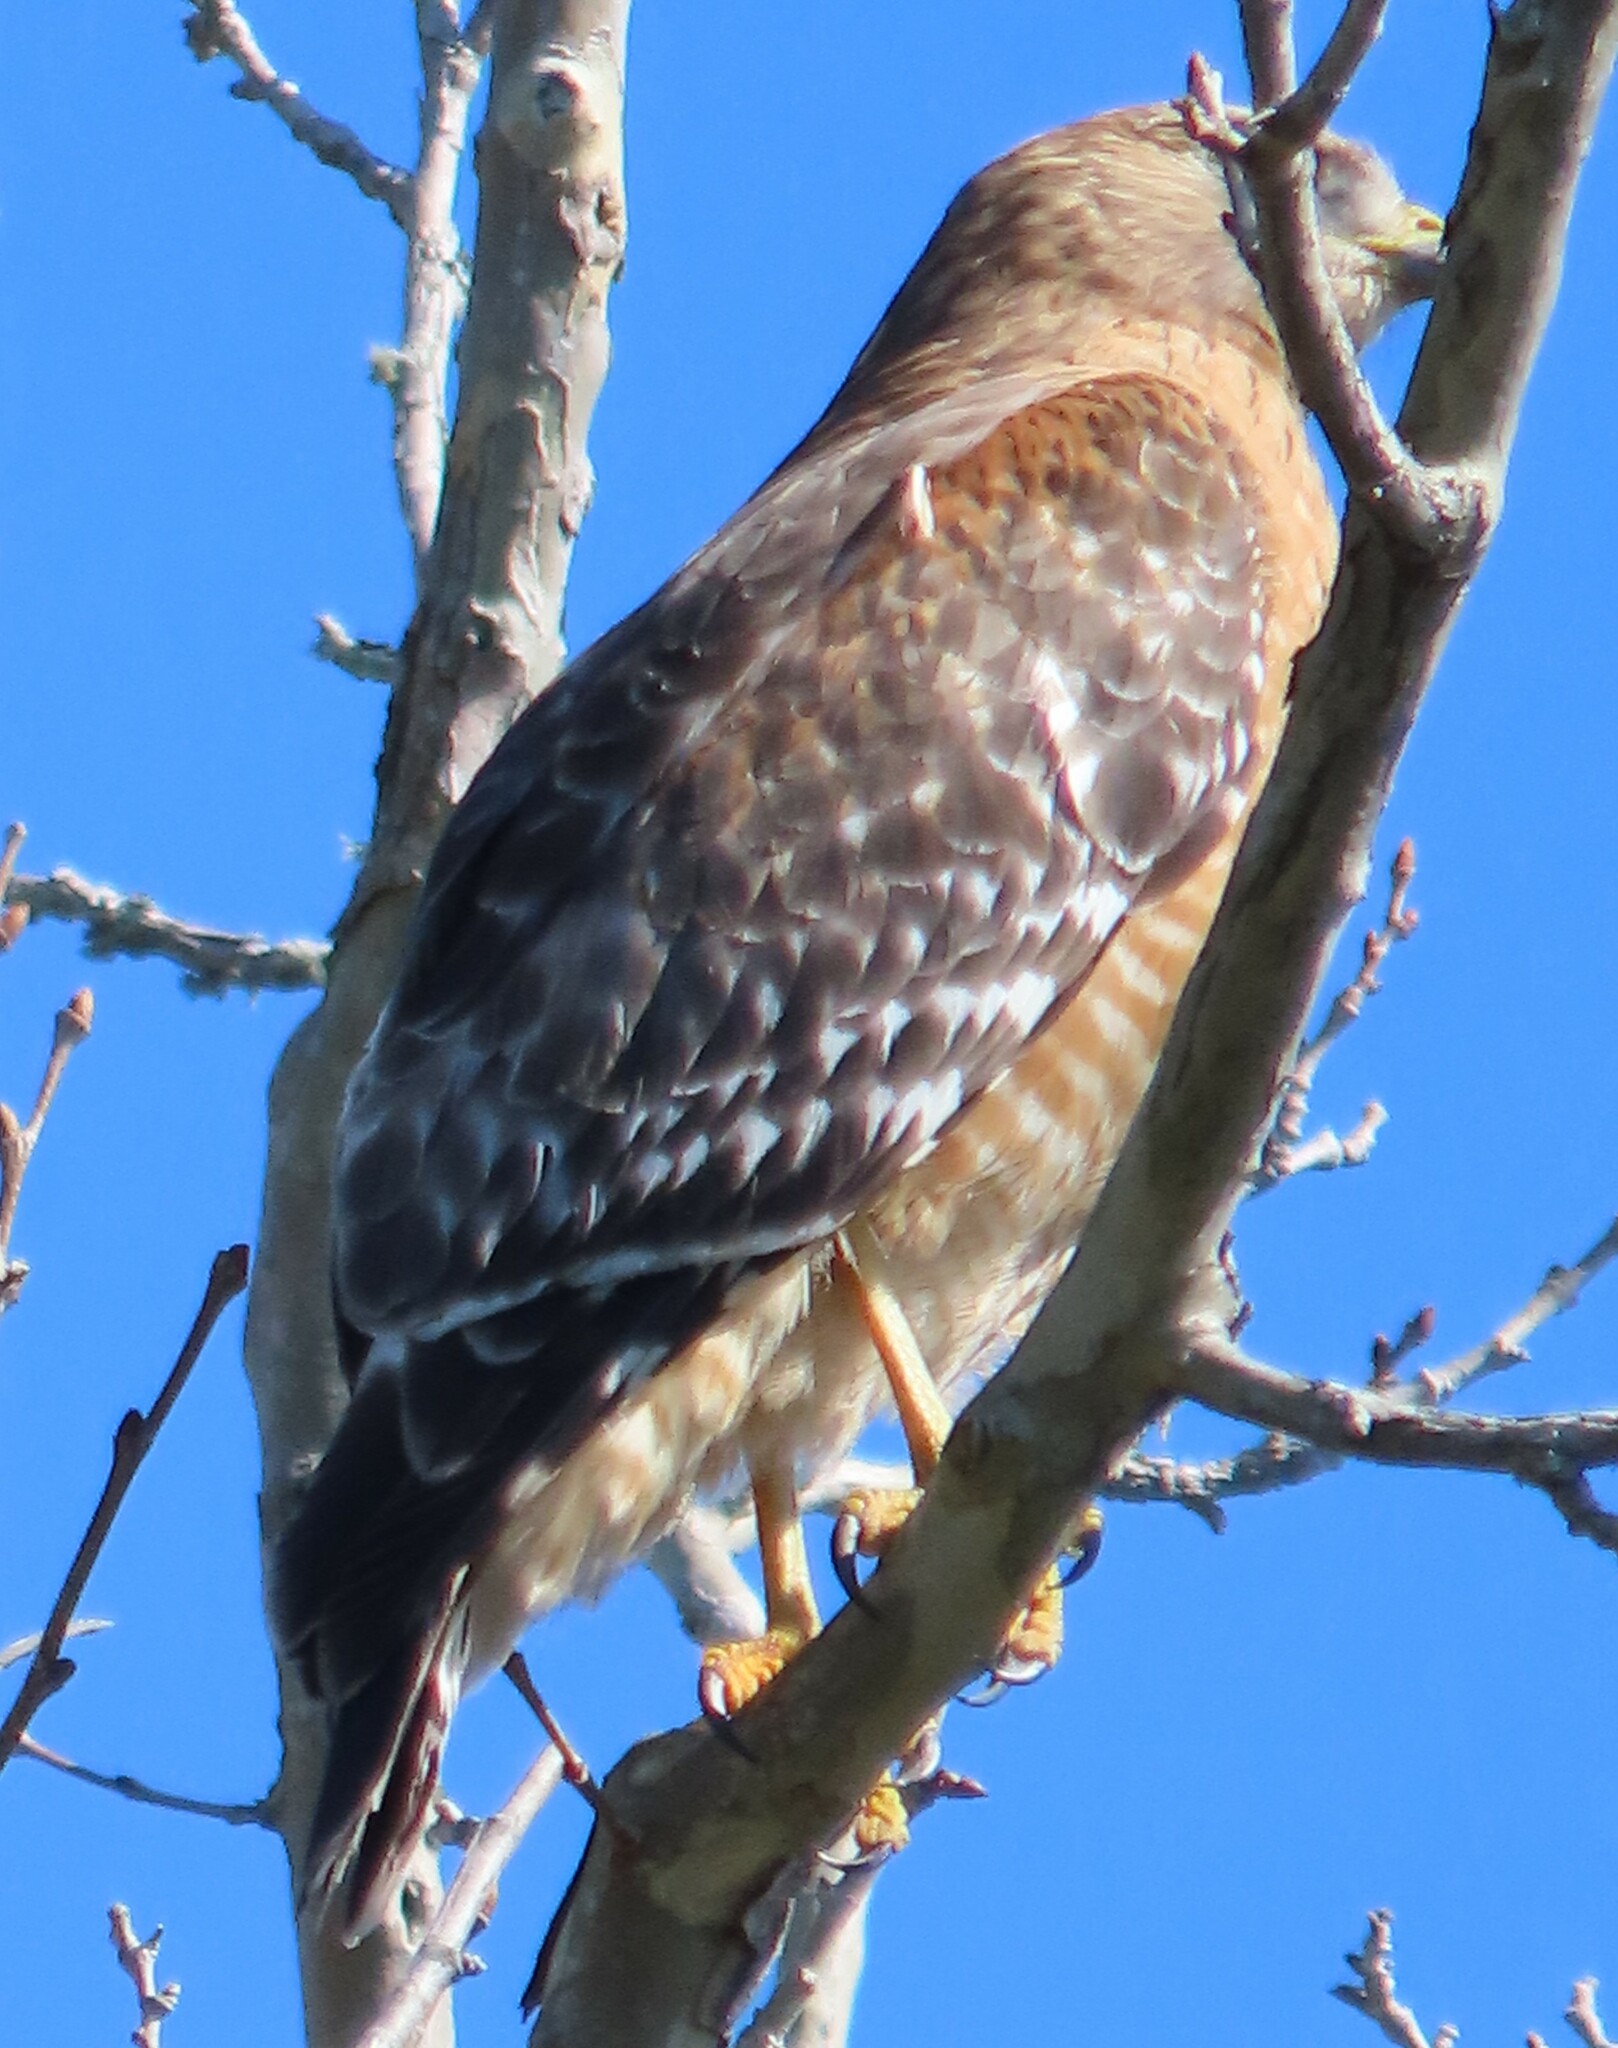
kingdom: Animalia
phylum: Chordata
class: Aves
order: Accipitriformes
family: Accipitridae
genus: Buteo
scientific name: Buteo lineatus
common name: Red-shouldered hawk
